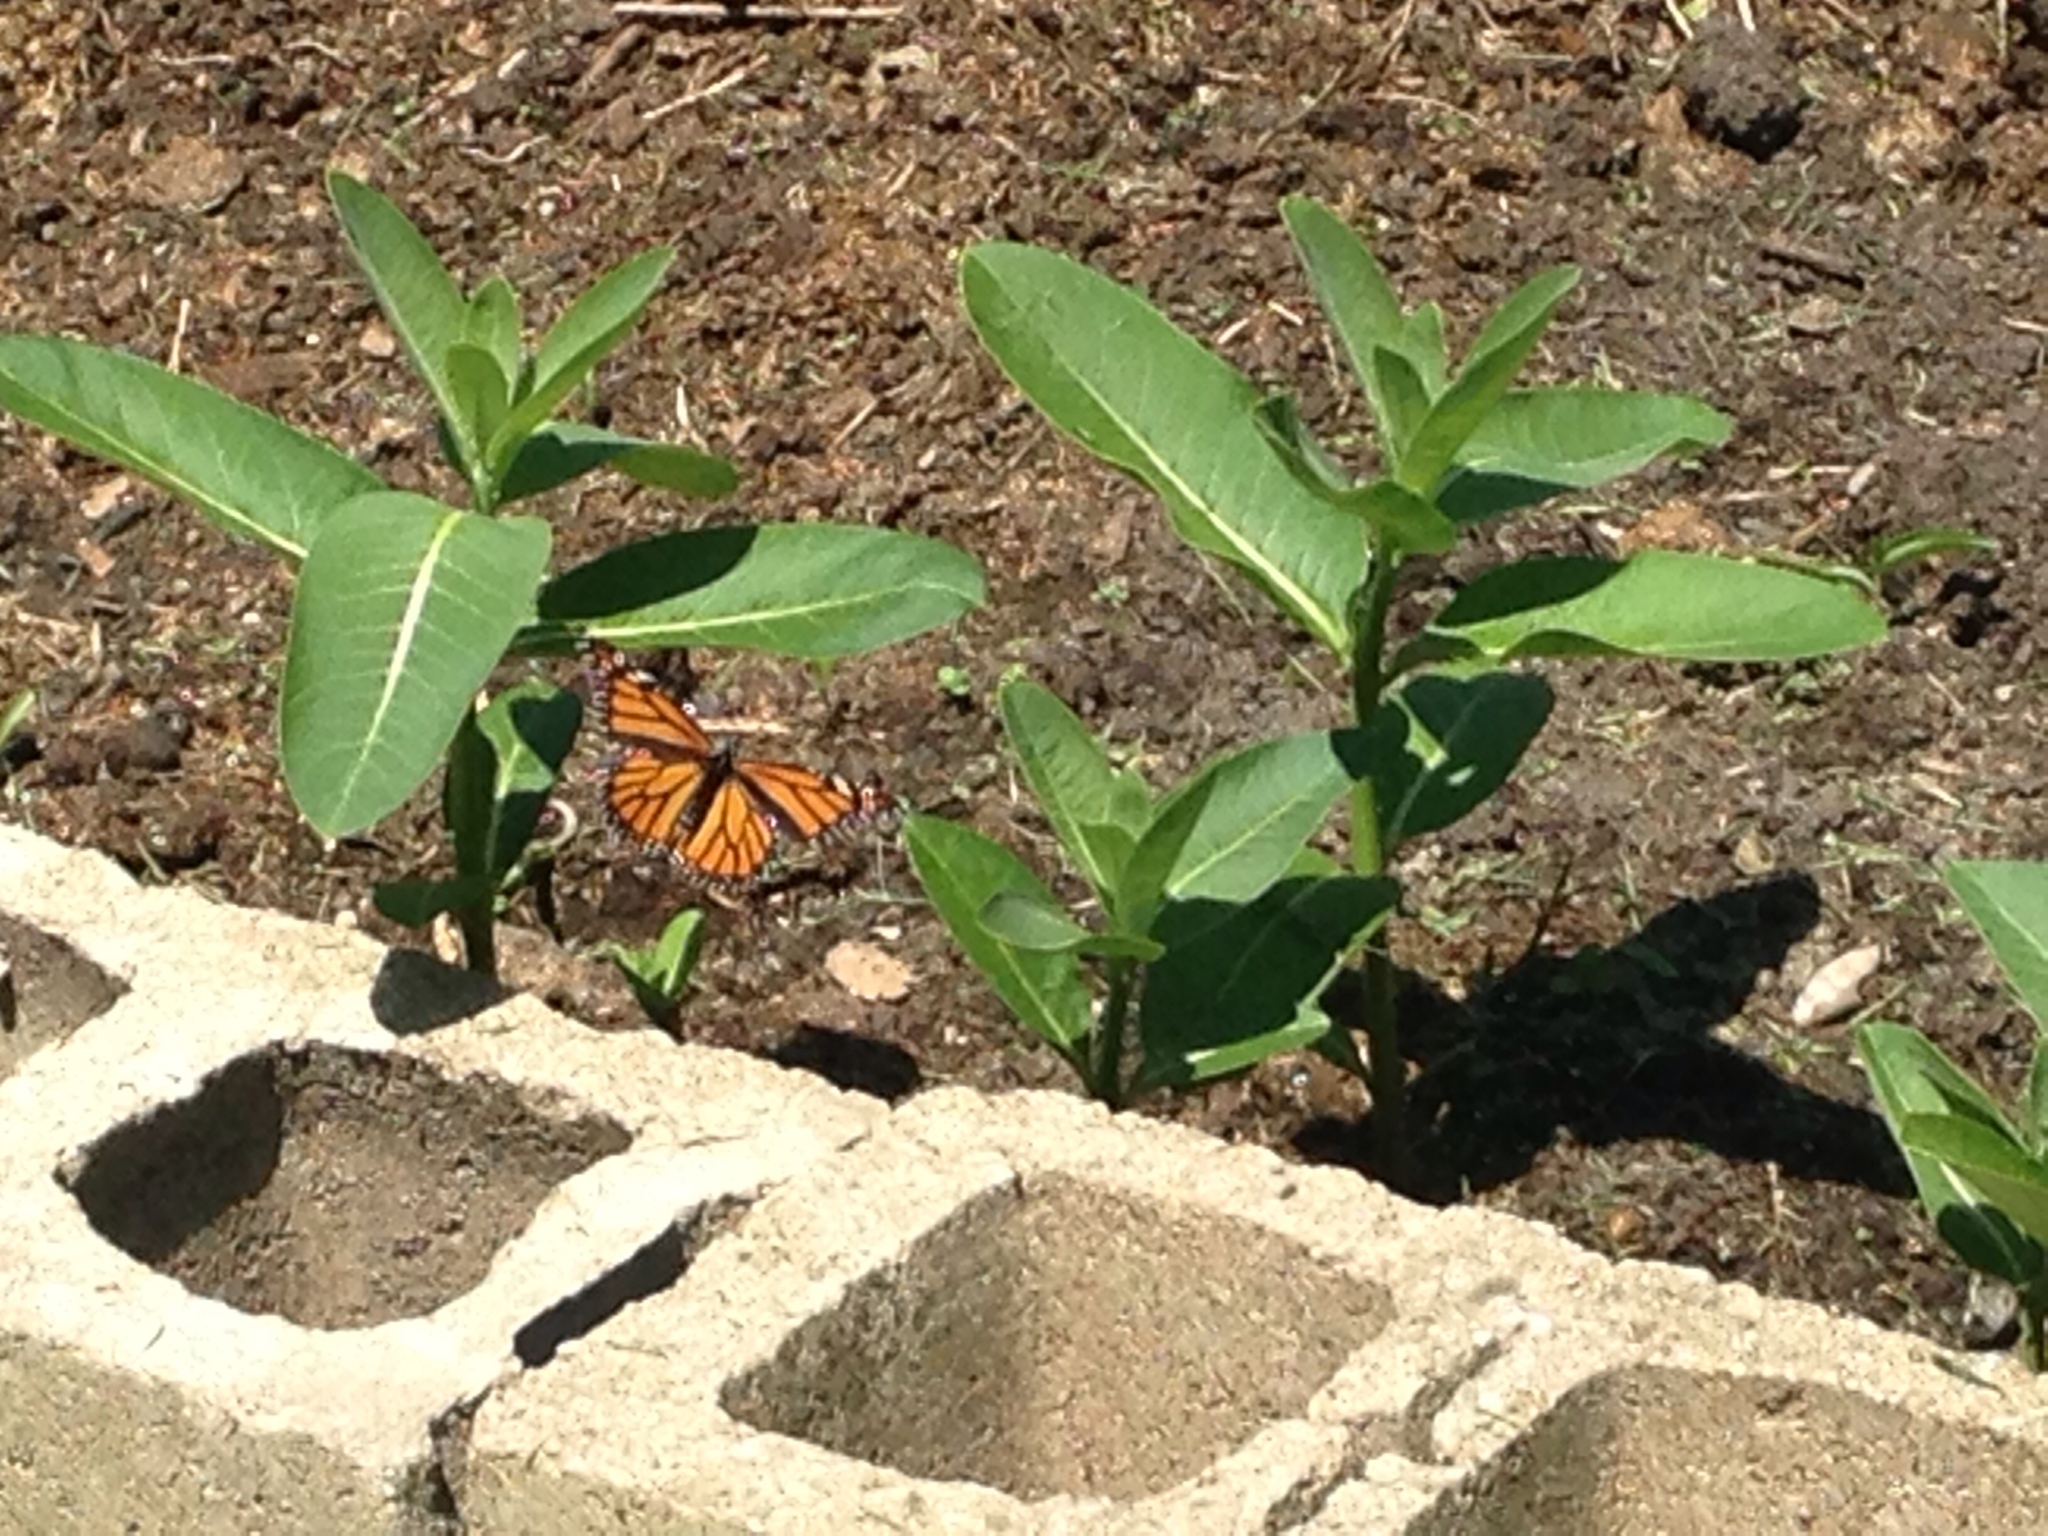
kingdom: Animalia
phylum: Arthropoda
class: Insecta
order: Lepidoptera
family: Nymphalidae
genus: Danaus
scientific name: Danaus plexippus
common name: Monarch
